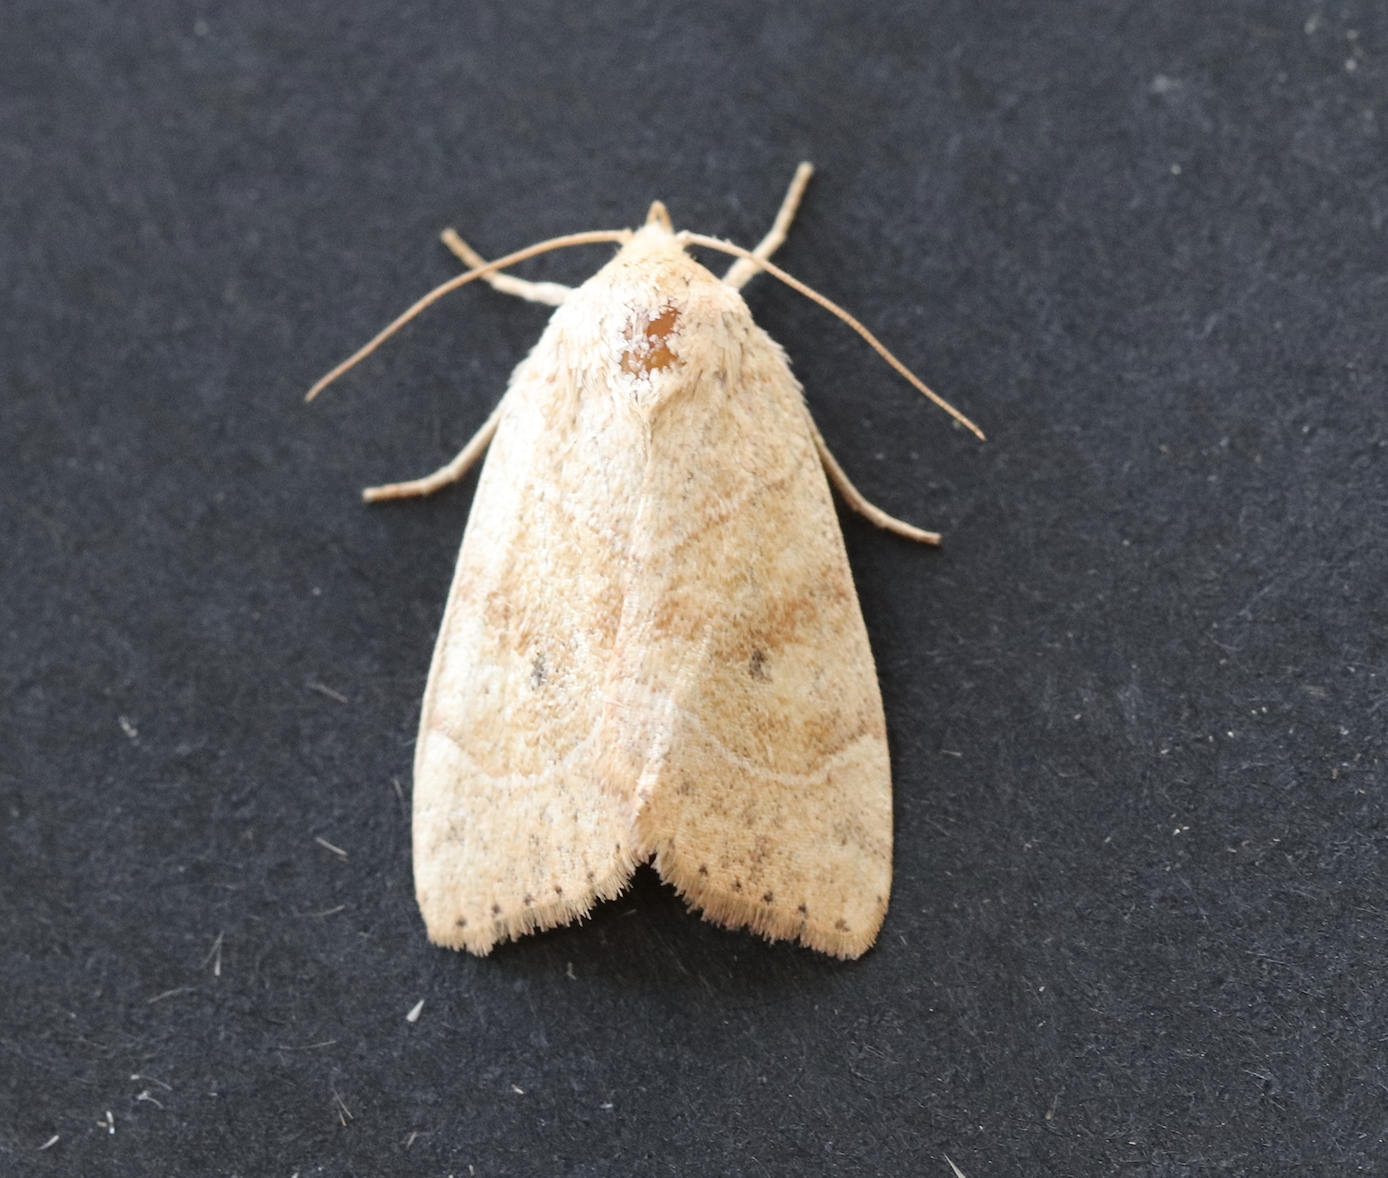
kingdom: Animalia
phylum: Arthropoda
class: Insecta
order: Lepidoptera
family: Noctuidae
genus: Cosmia
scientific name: Cosmia trapezina
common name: Dun-bar
